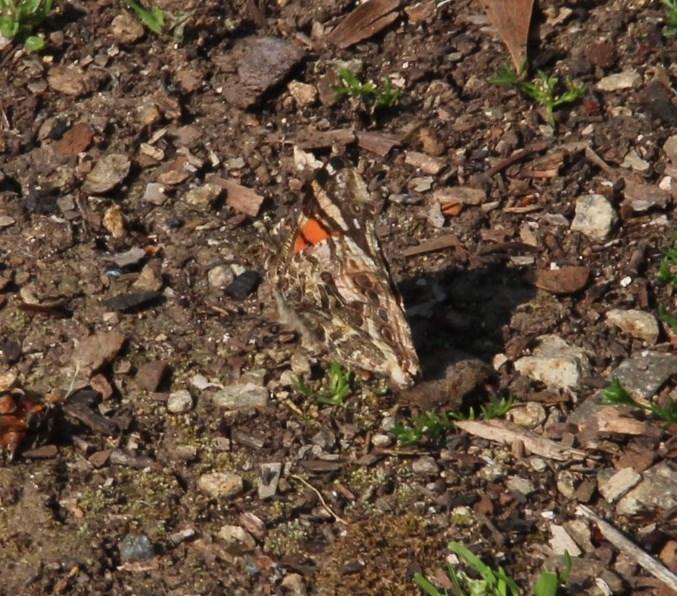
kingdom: Animalia
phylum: Arthropoda
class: Insecta
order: Lepidoptera
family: Nymphalidae
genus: Vanessa
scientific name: Vanessa carye
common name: Subtropical lady
